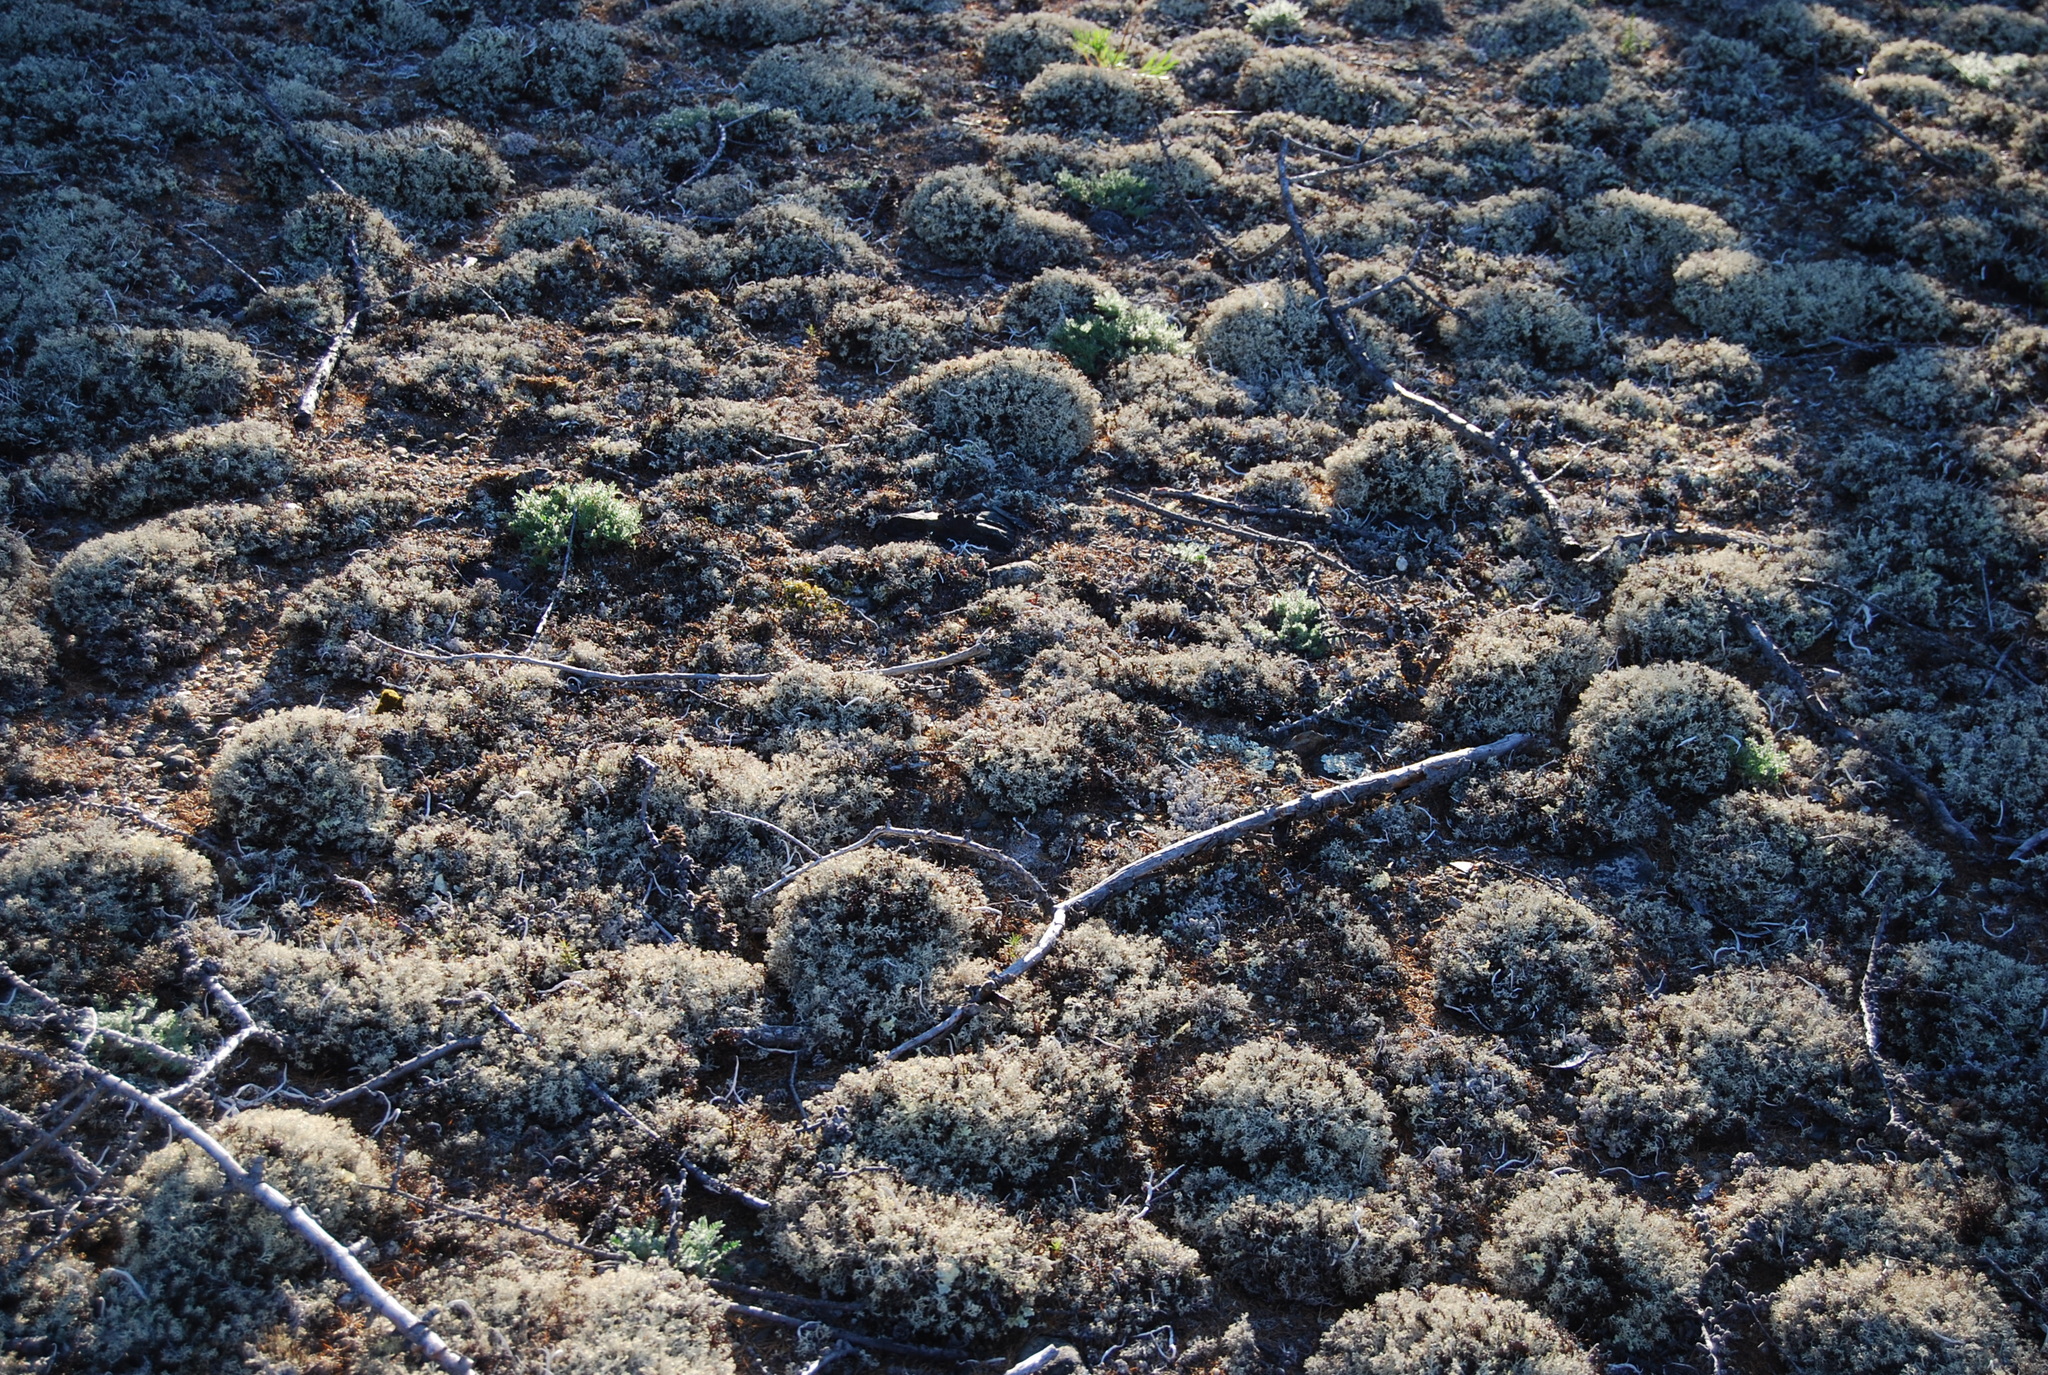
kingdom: Plantae
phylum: Tracheophyta
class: Magnoliopsida
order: Fabales
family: Fabaceae
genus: Oxytropis
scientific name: Oxytropis susumanica
